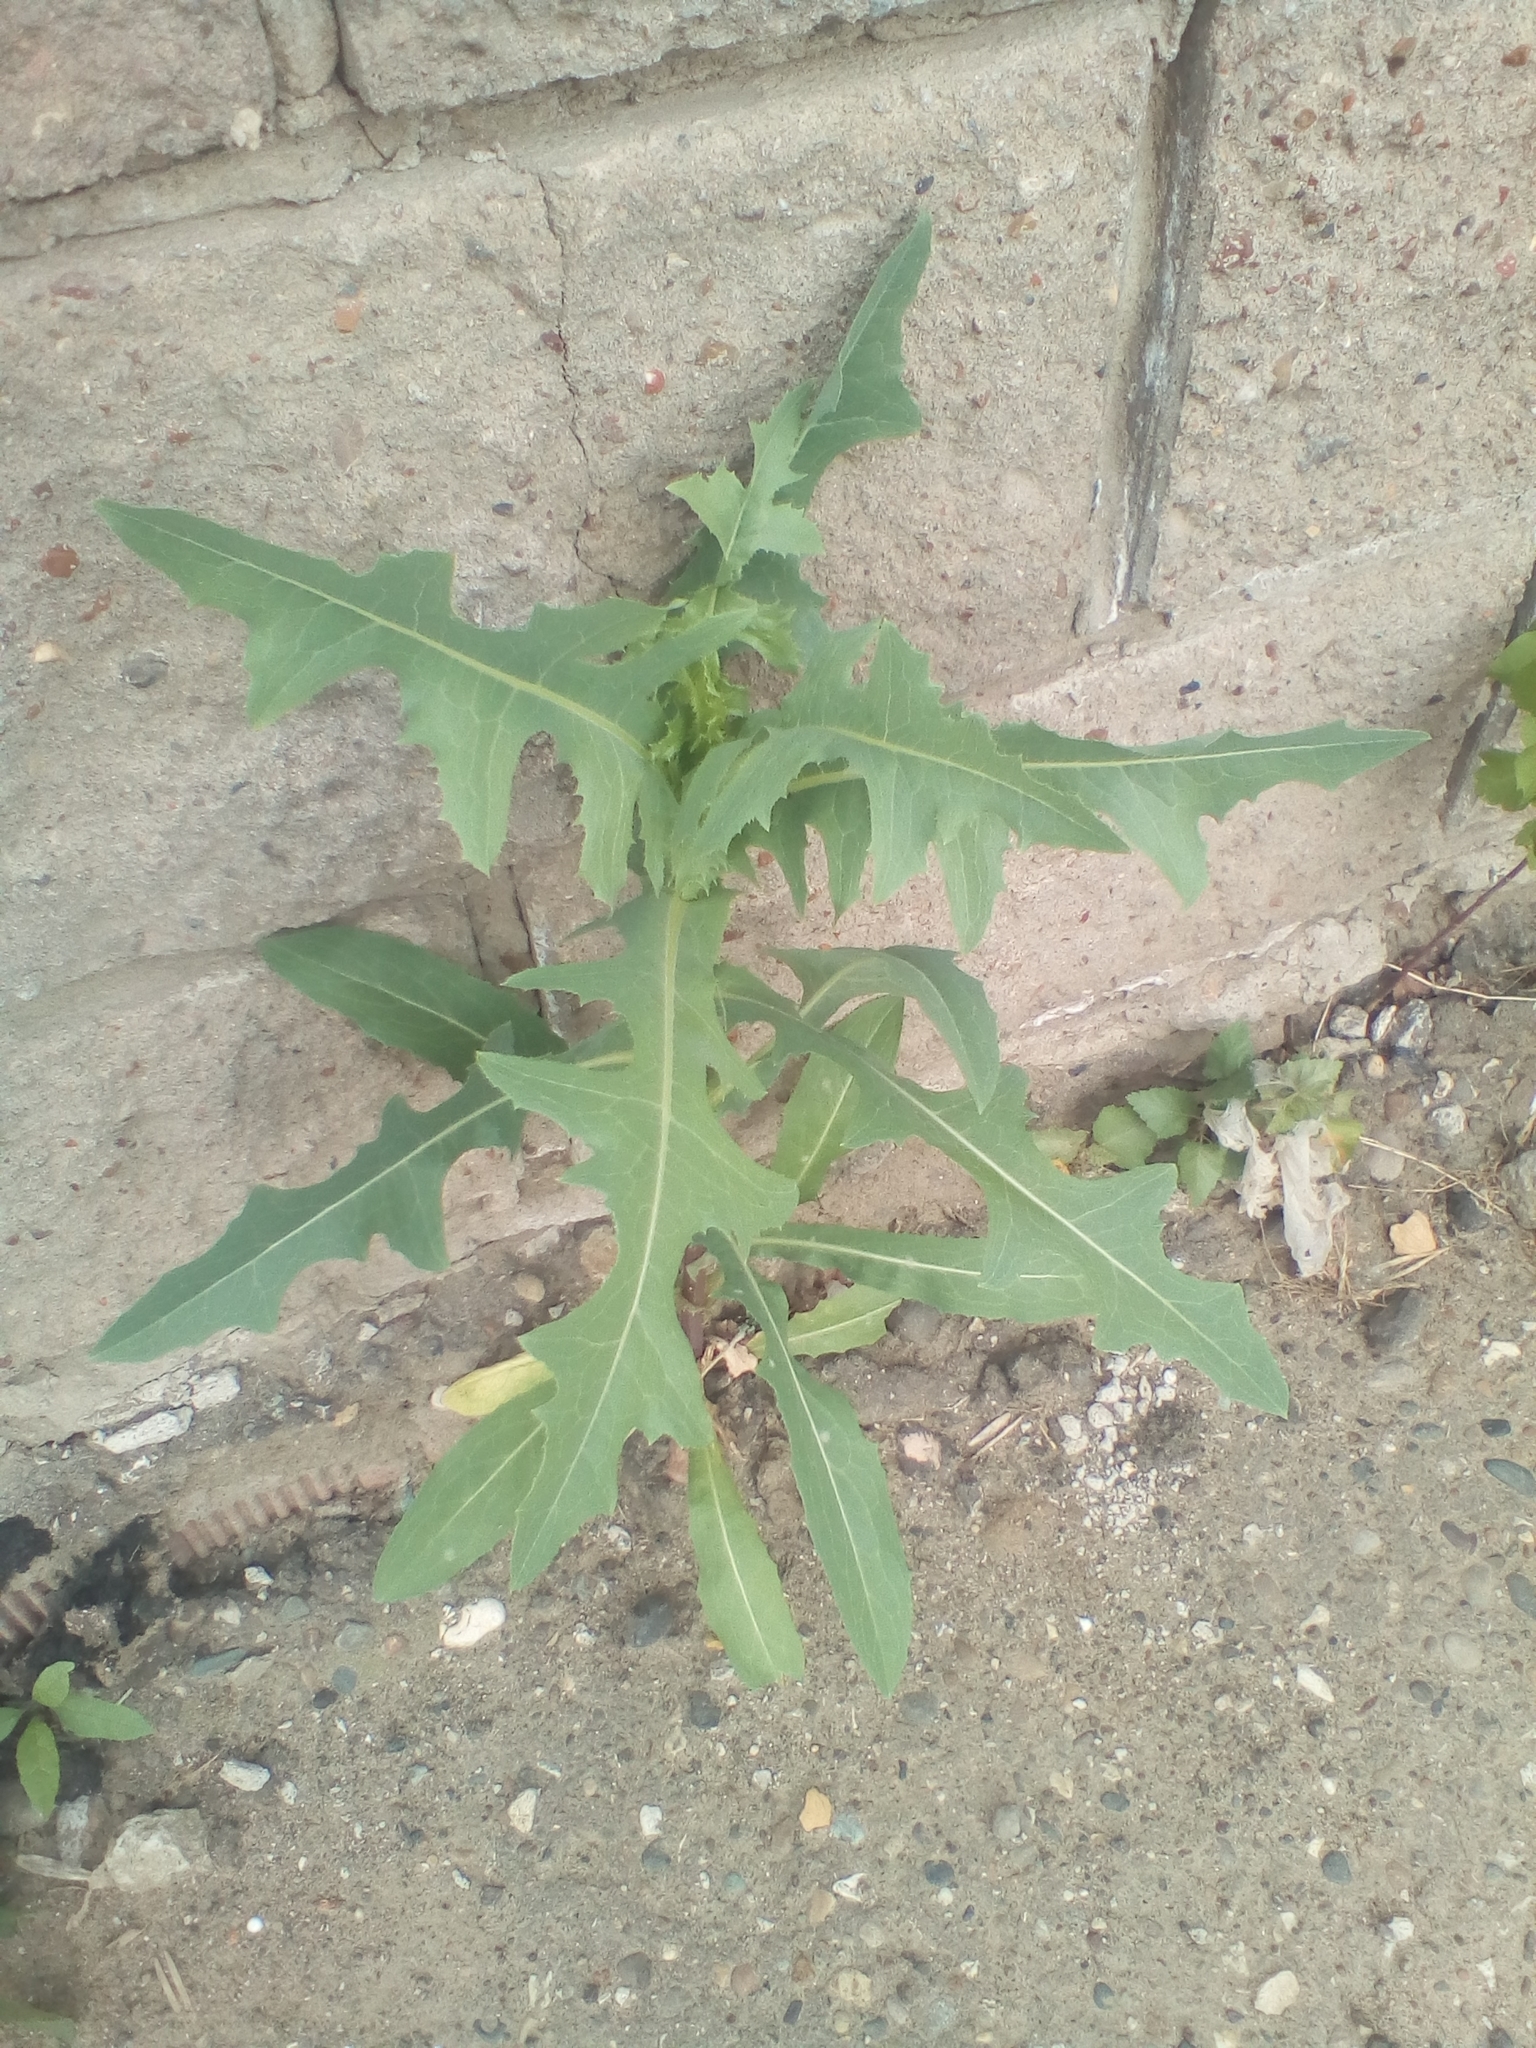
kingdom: Plantae
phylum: Tracheophyta
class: Magnoliopsida
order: Asterales
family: Asteraceae
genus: Lactuca
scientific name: Lactuca serriola
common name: Prickly lettuce
